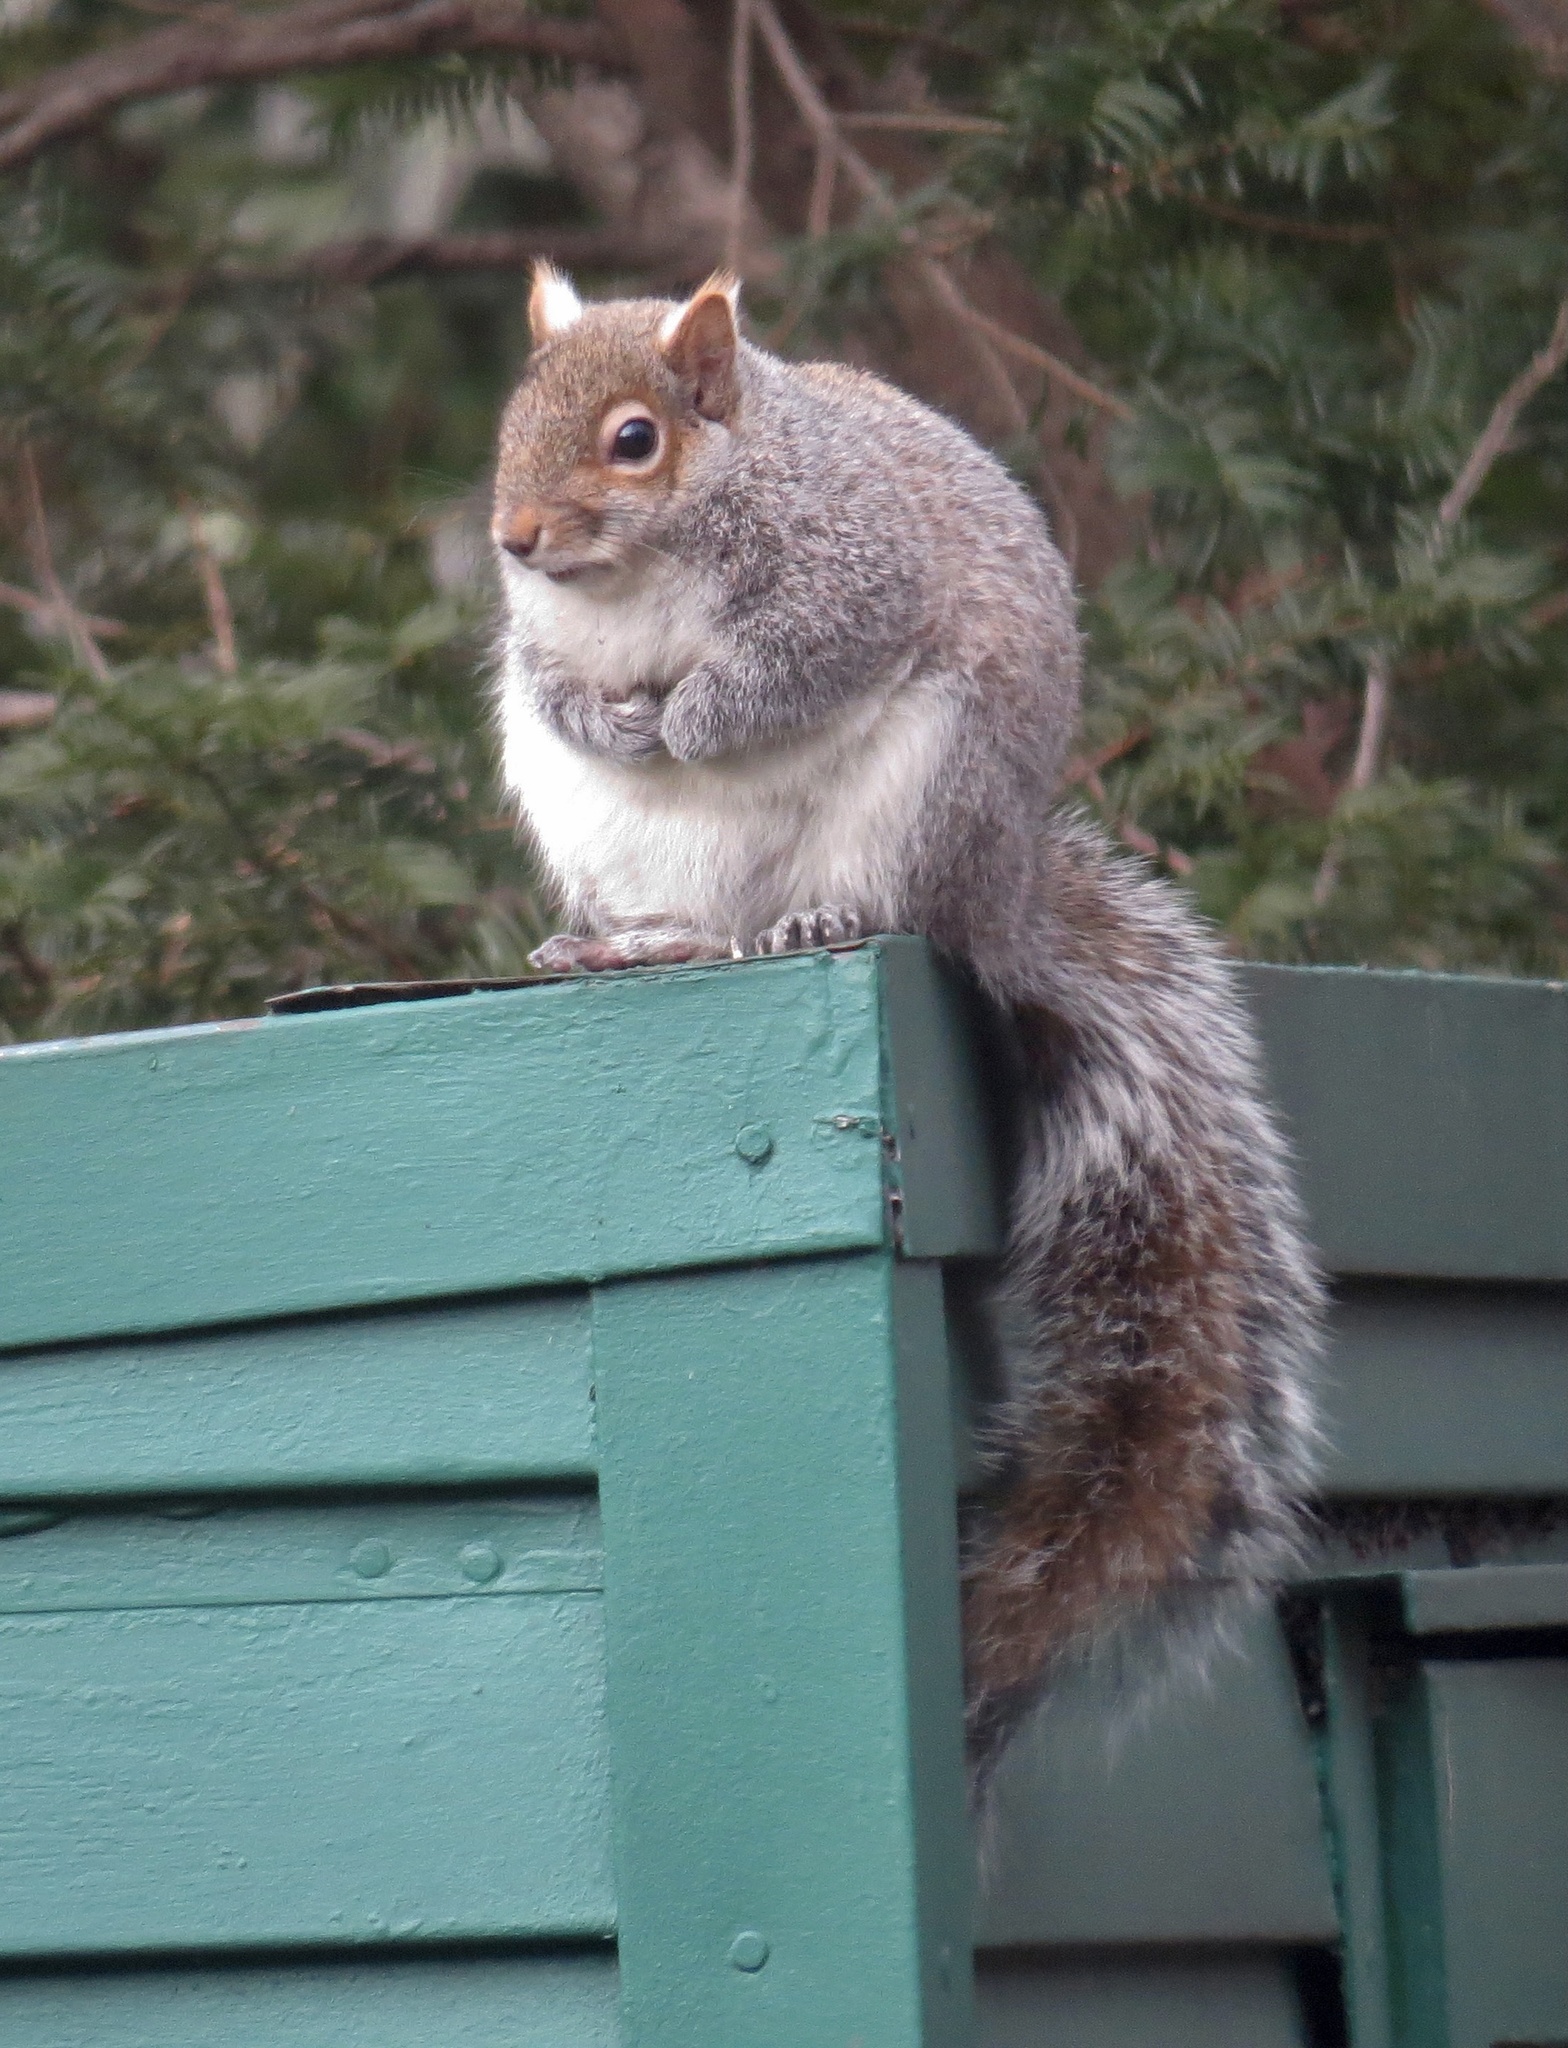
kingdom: Animalia
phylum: Chordata
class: Mammalia
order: Rodentia
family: Sciuridae
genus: Sciurus
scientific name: Sciurus carolinensis
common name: Eastern gray squirrel
